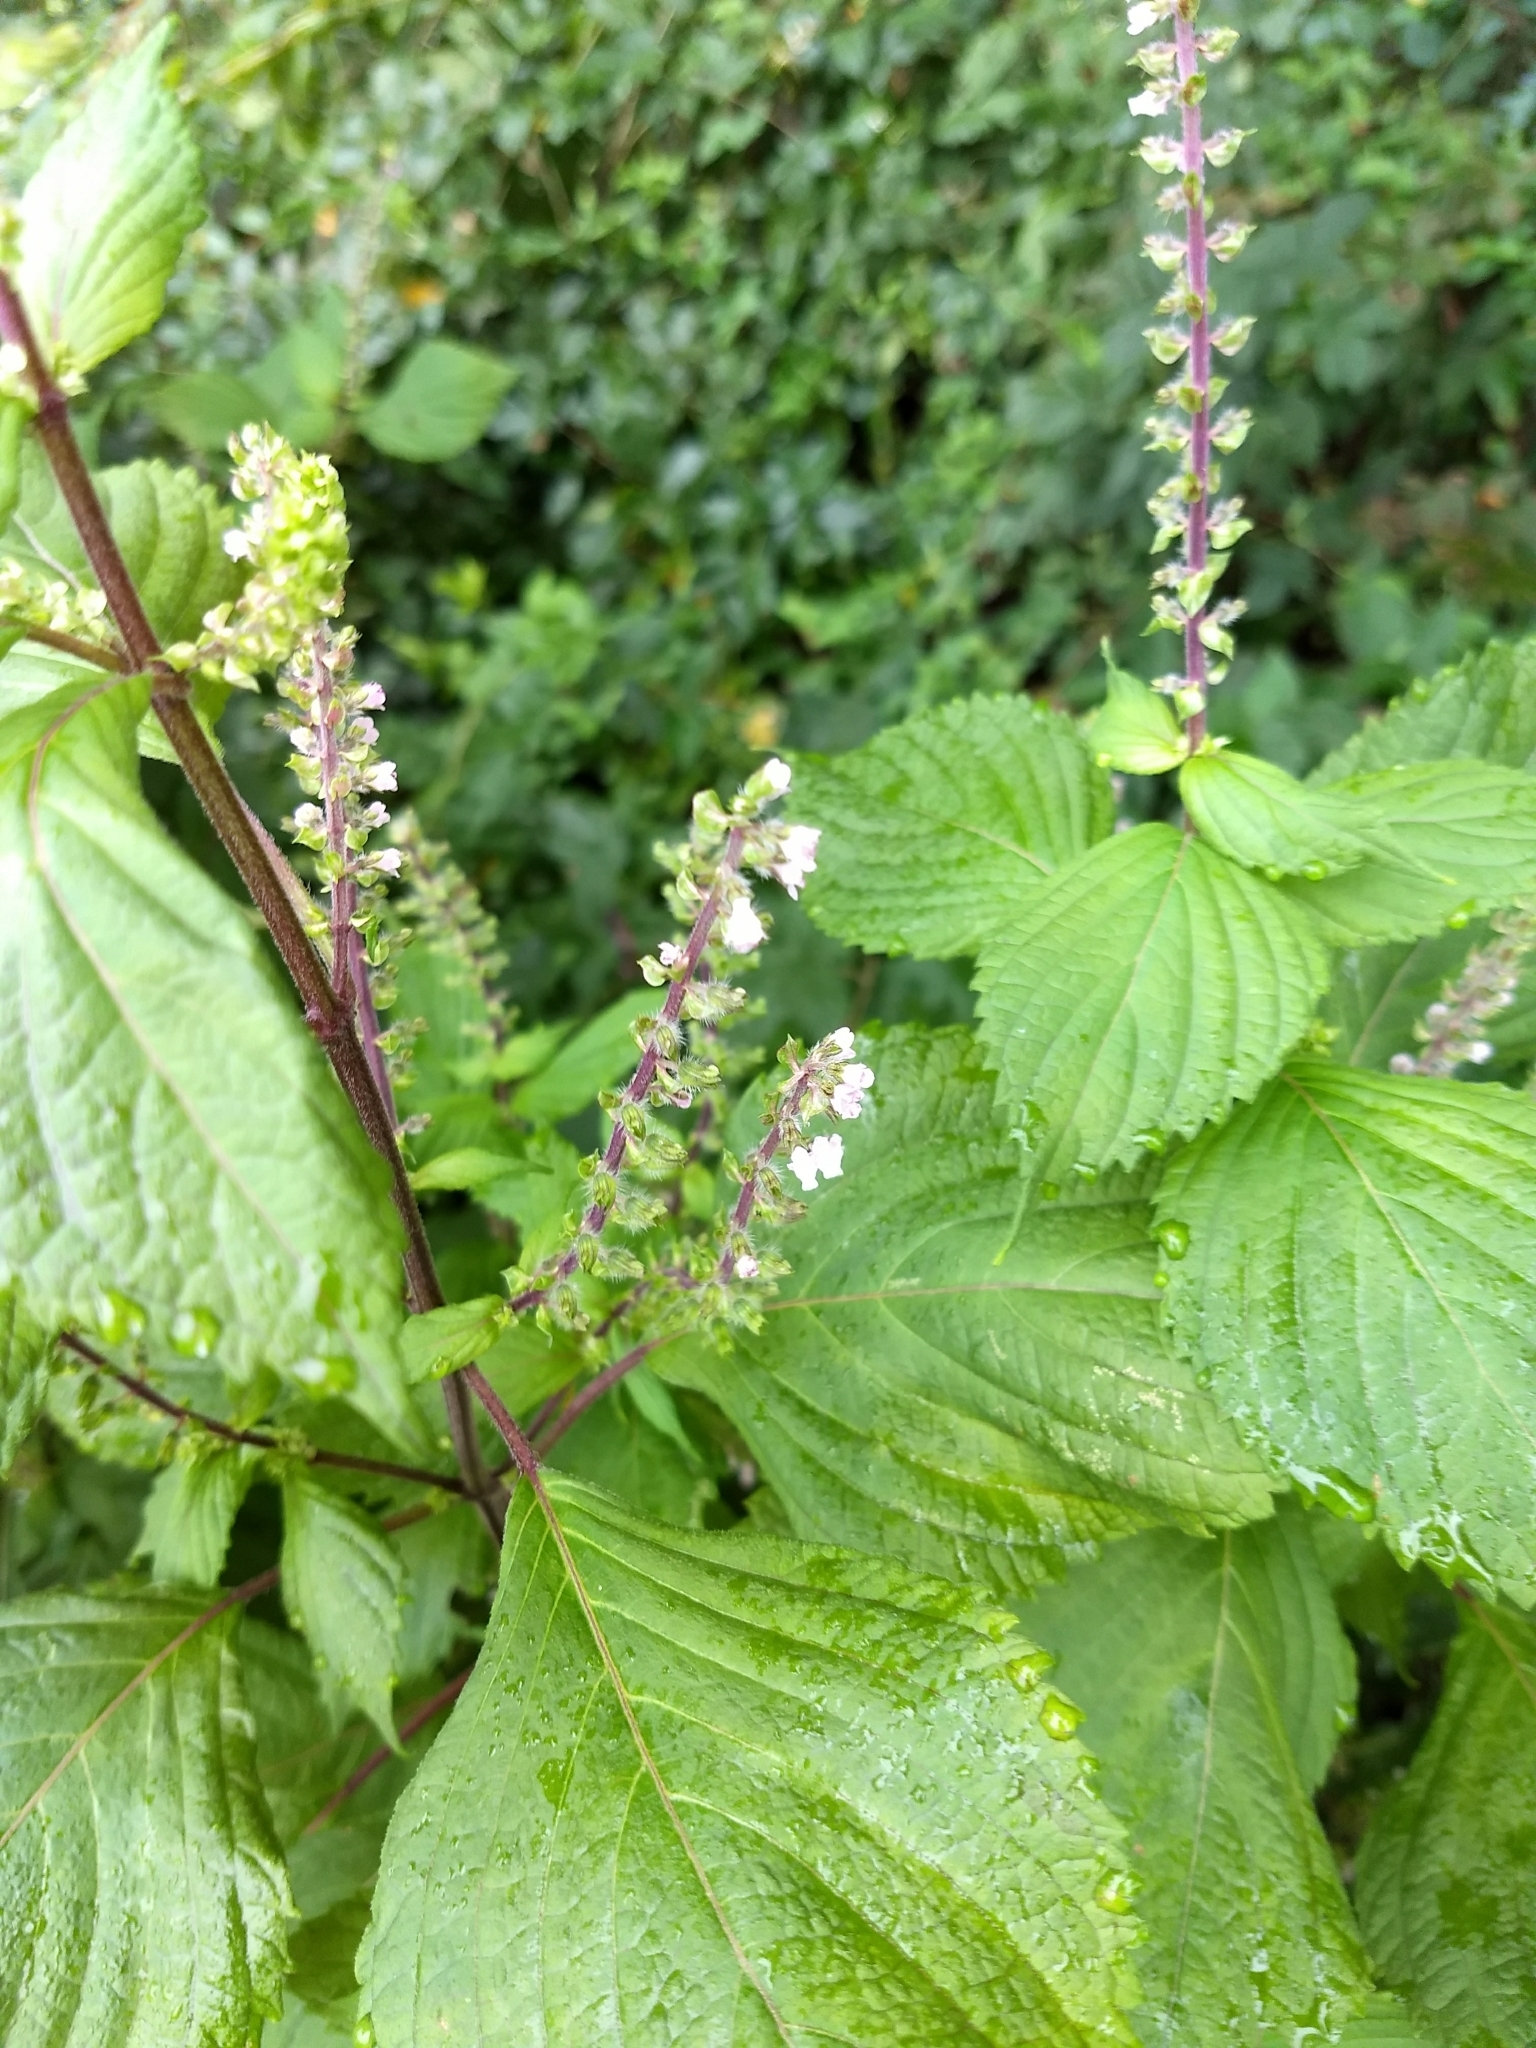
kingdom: Plantae
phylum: Tracheophyta
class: Magnoliopsida
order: Lamiales
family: Lamiaceae
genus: Perilla
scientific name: Perilla frutescens
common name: Perilla
